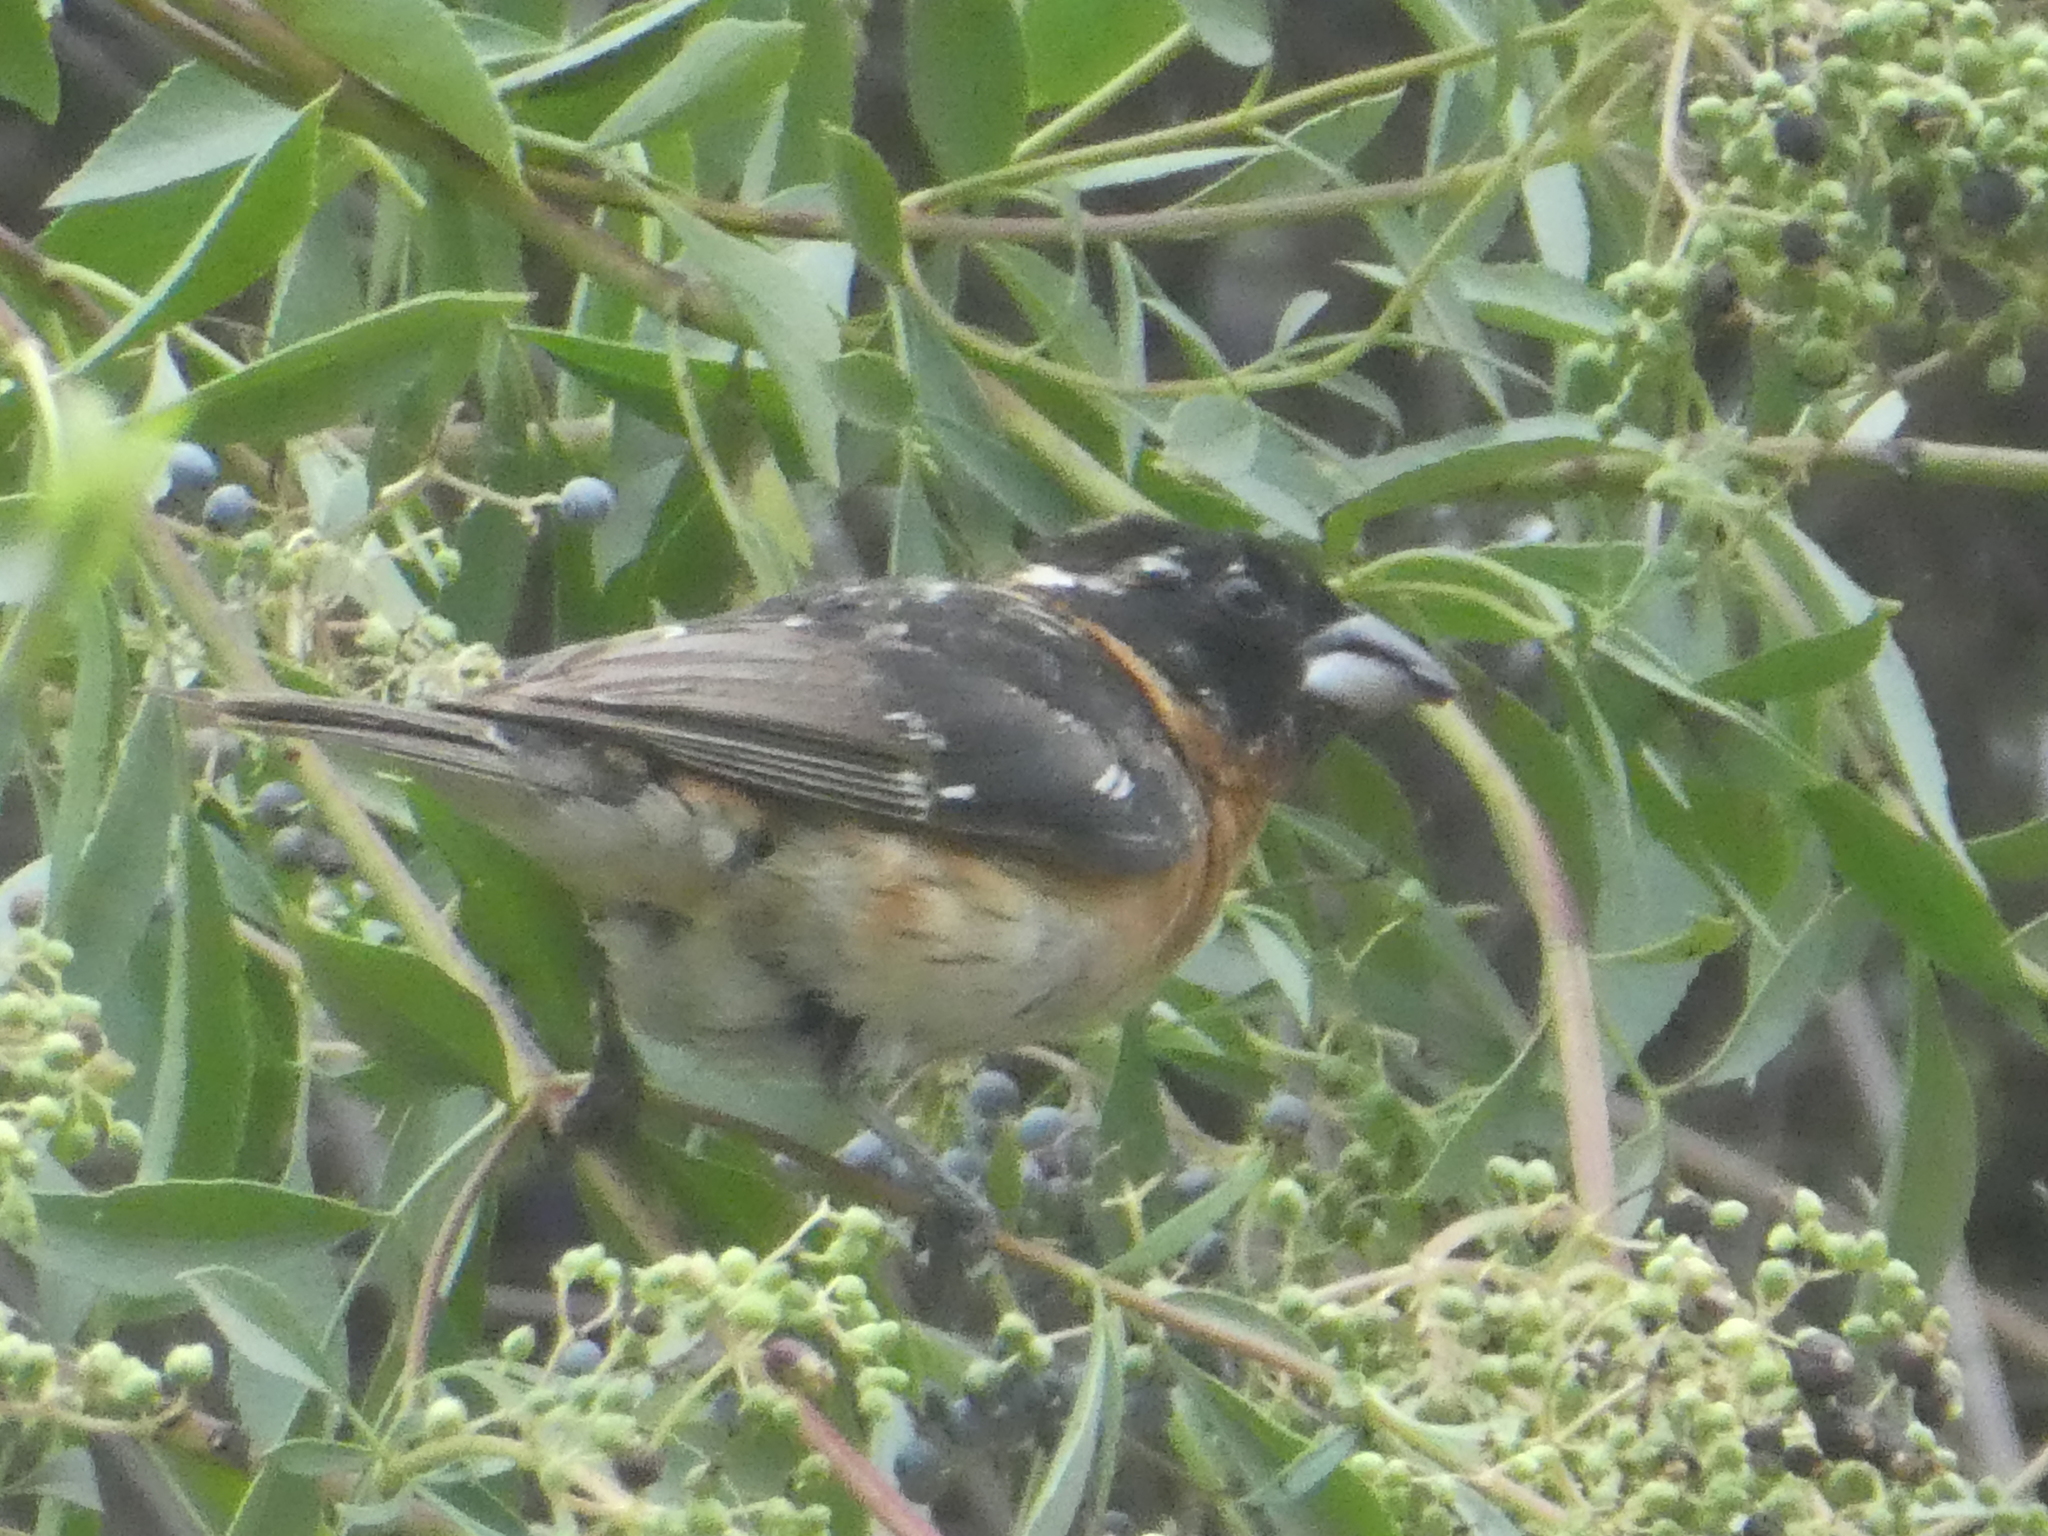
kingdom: Animalia
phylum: Chordata
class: Aves
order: Passeriformes
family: Cardinalidae
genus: Pheucticus
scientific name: Pheucticus melanocephalus
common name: Black-headed grosbeak
